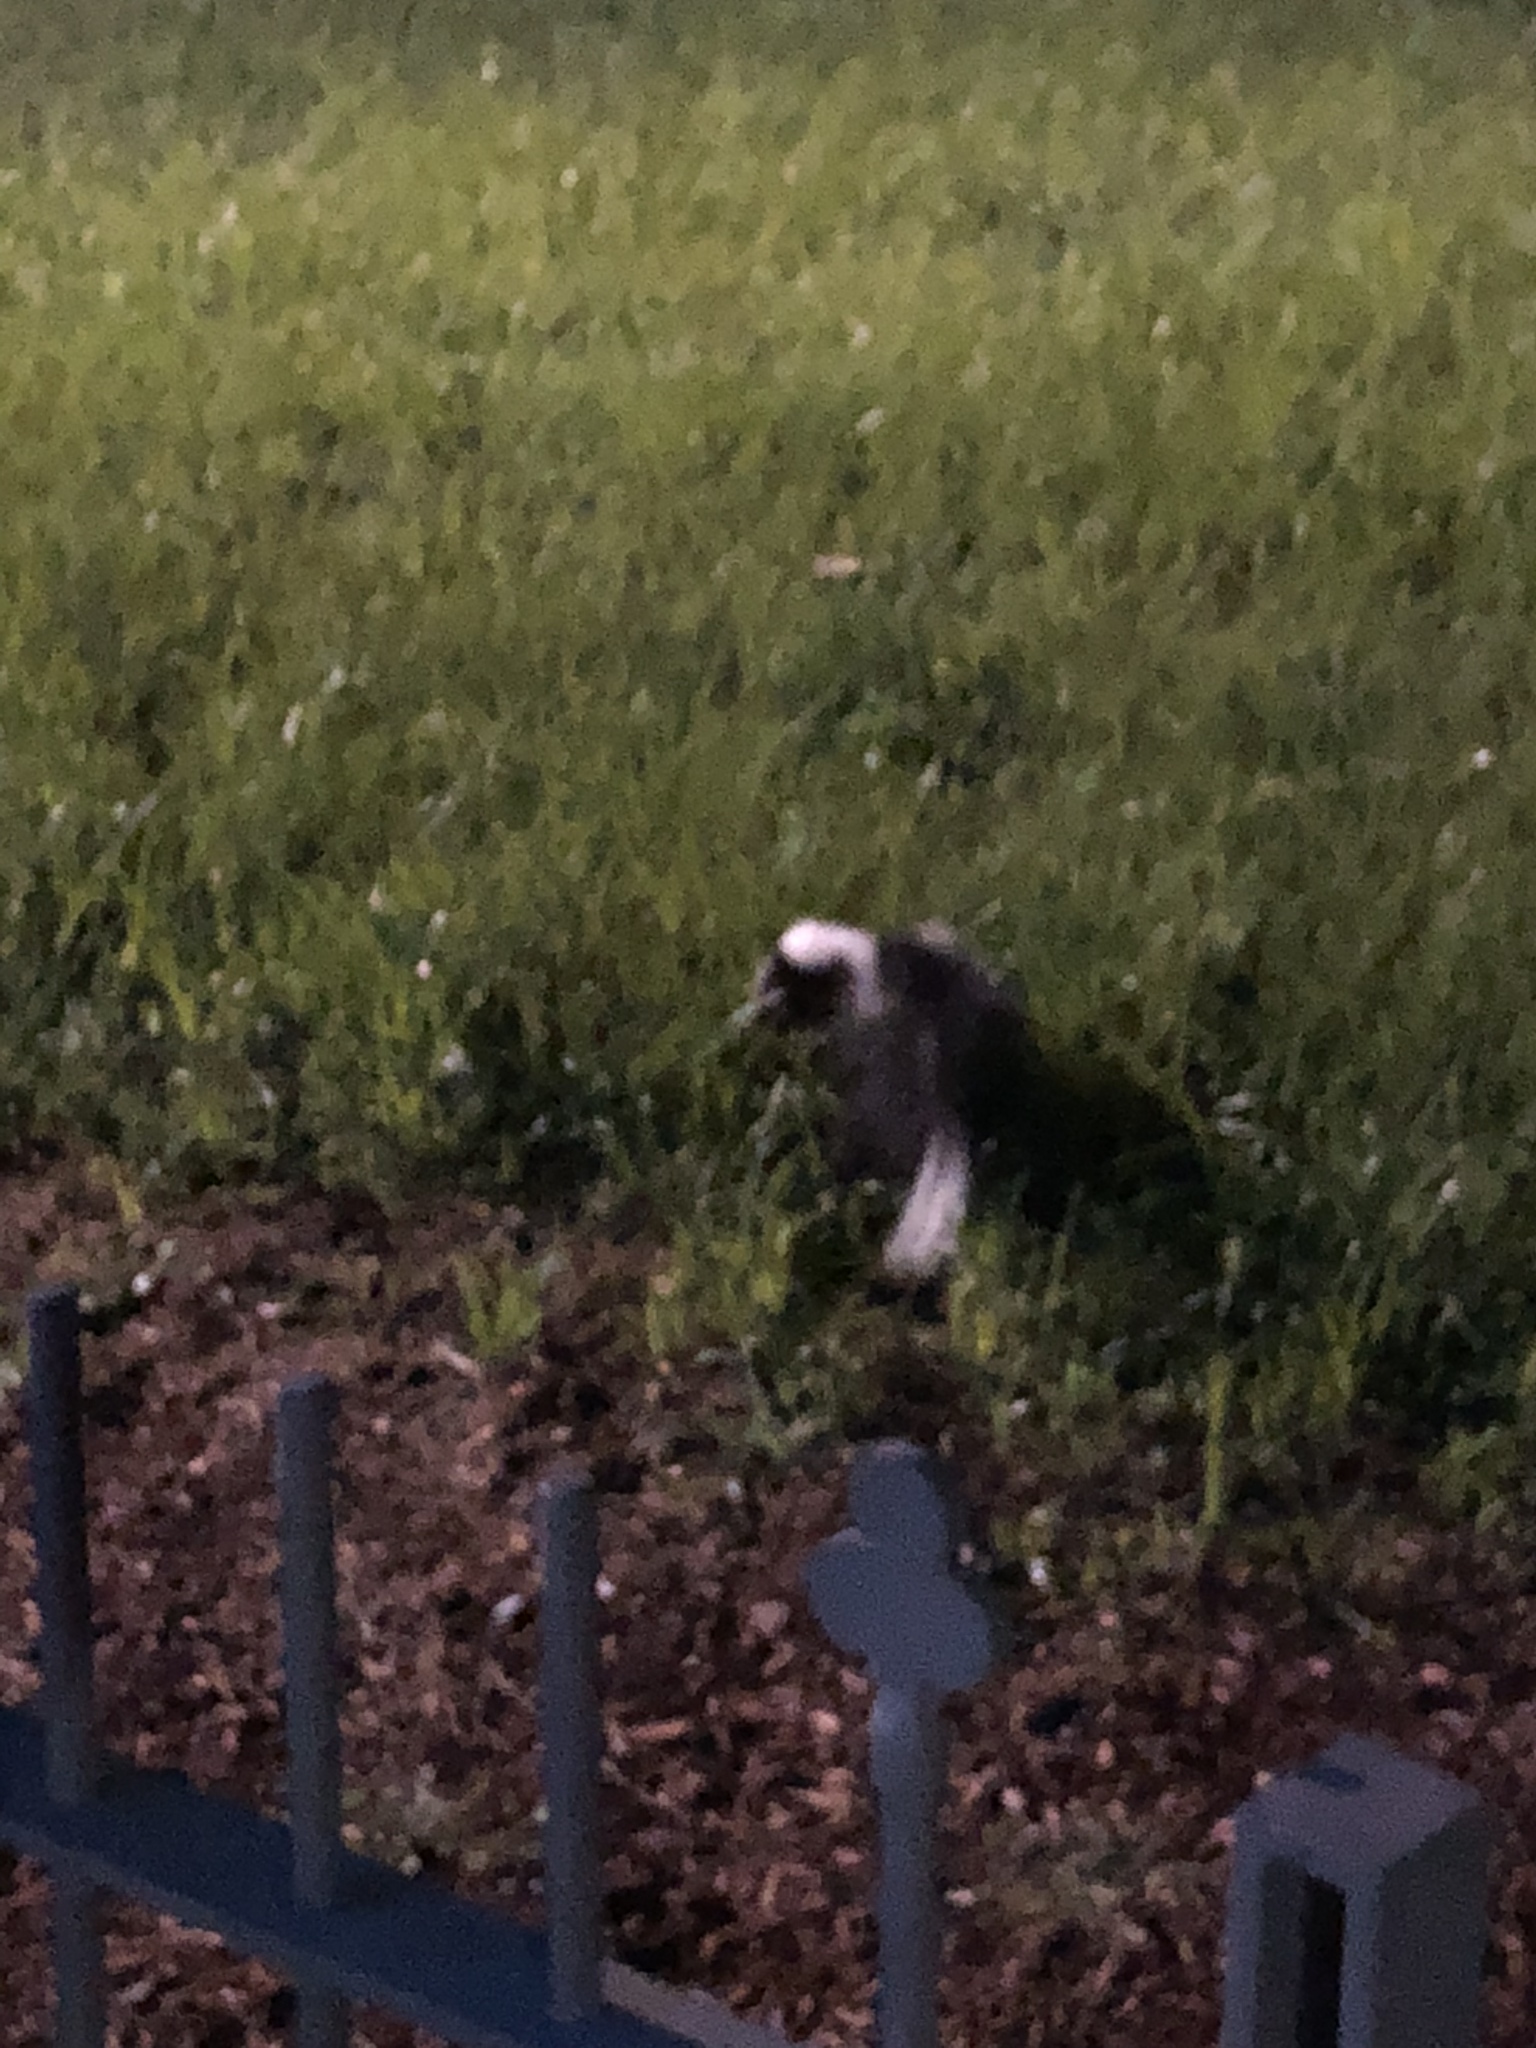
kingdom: Animalia
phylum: Chordata
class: Mammalia
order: Carnivora
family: Mephitidae
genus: Mephitis
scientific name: Mephitis mephitis
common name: Striped skunk
